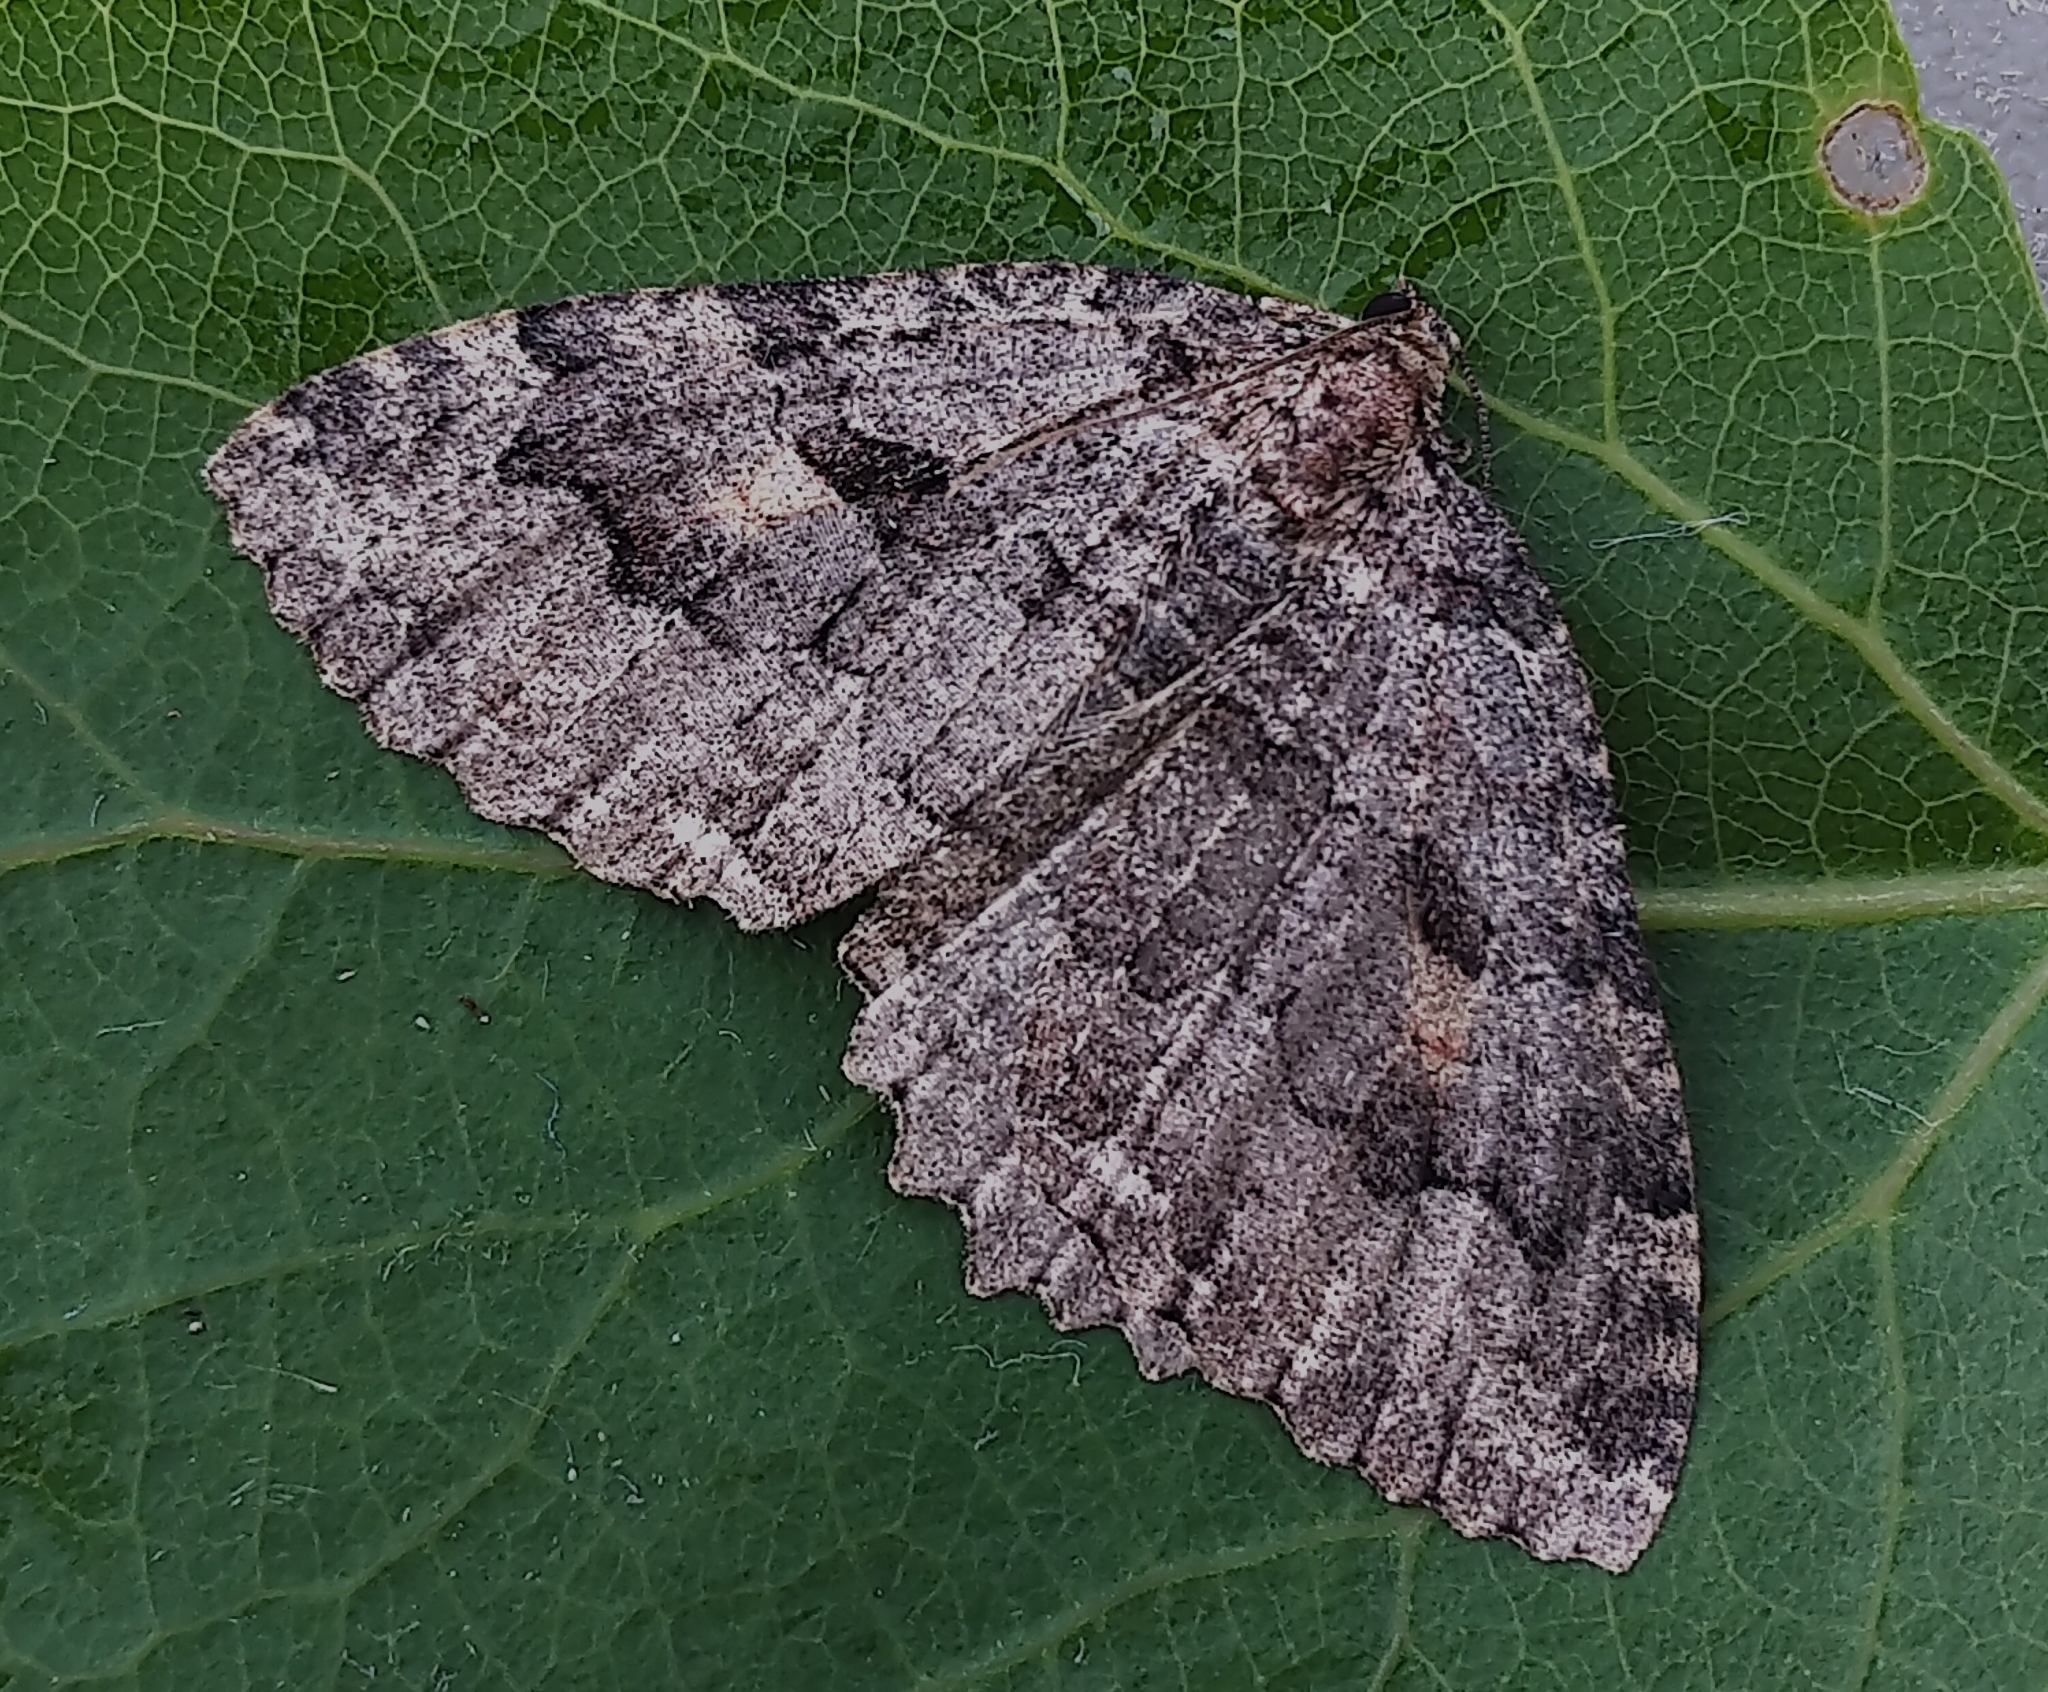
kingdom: Animalia
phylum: Arthropoda
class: Insecta
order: Lepidoptera
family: Geometridae
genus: Triphosa
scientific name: Triphosa haesitata
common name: Tissue moth
